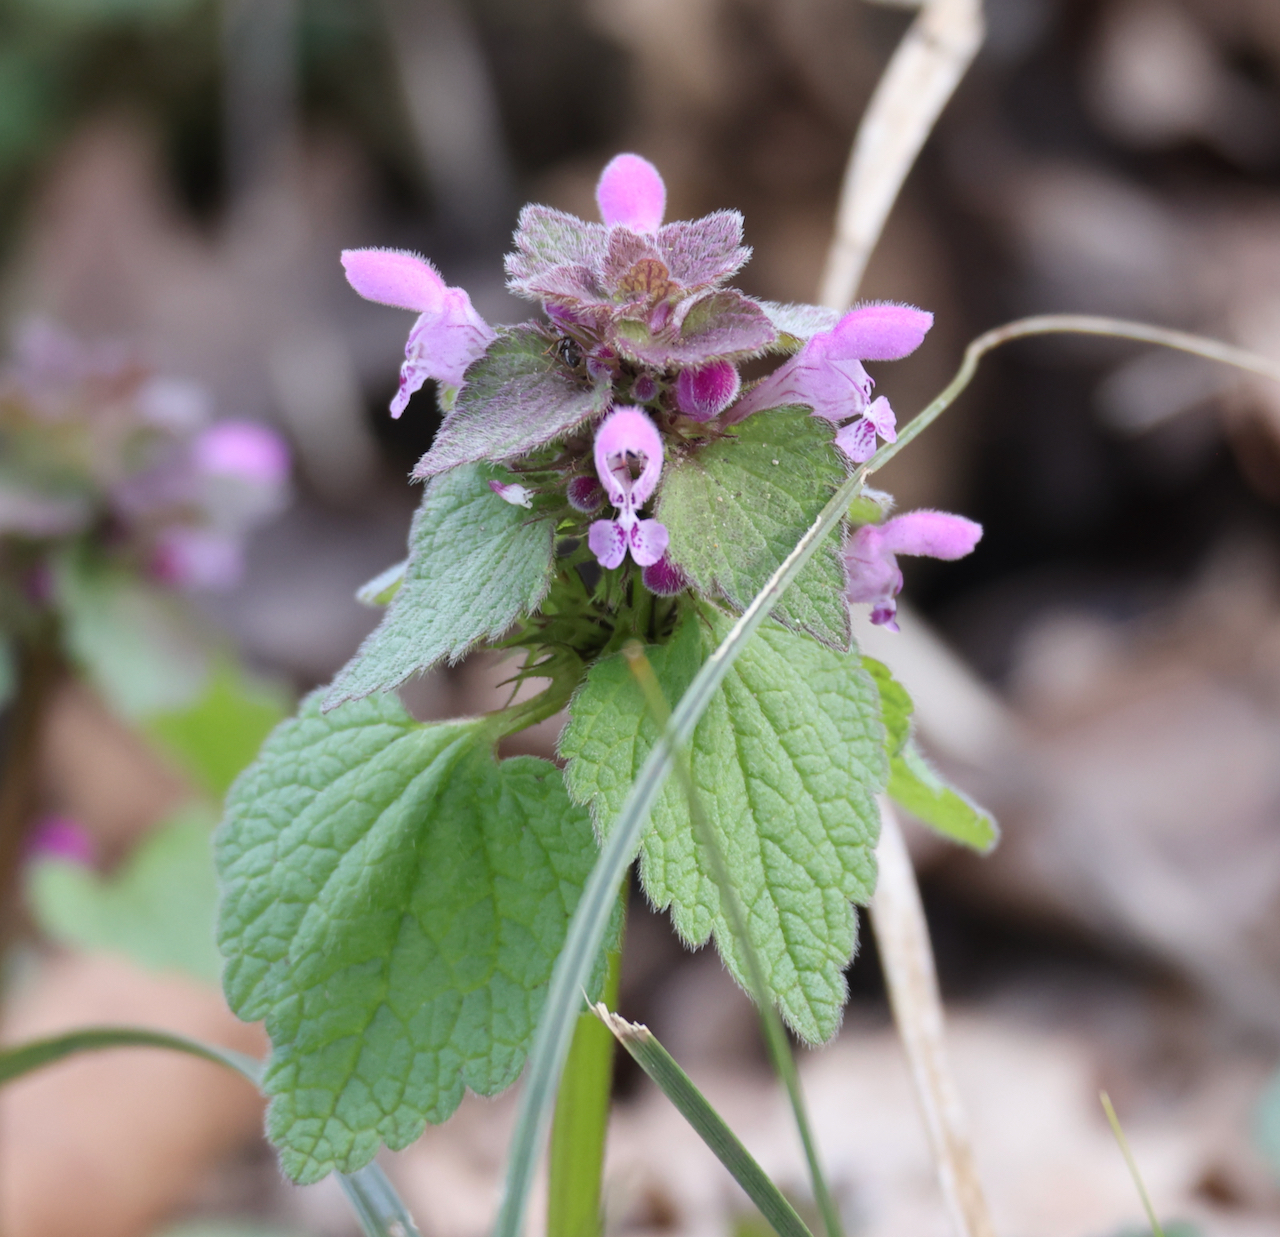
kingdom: Plantae
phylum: Tracheophyta
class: Magnoliopsida
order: Lamiales
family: Lamiaceae
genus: Lamium
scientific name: Lamium purpureum
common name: Red dead-nettle
